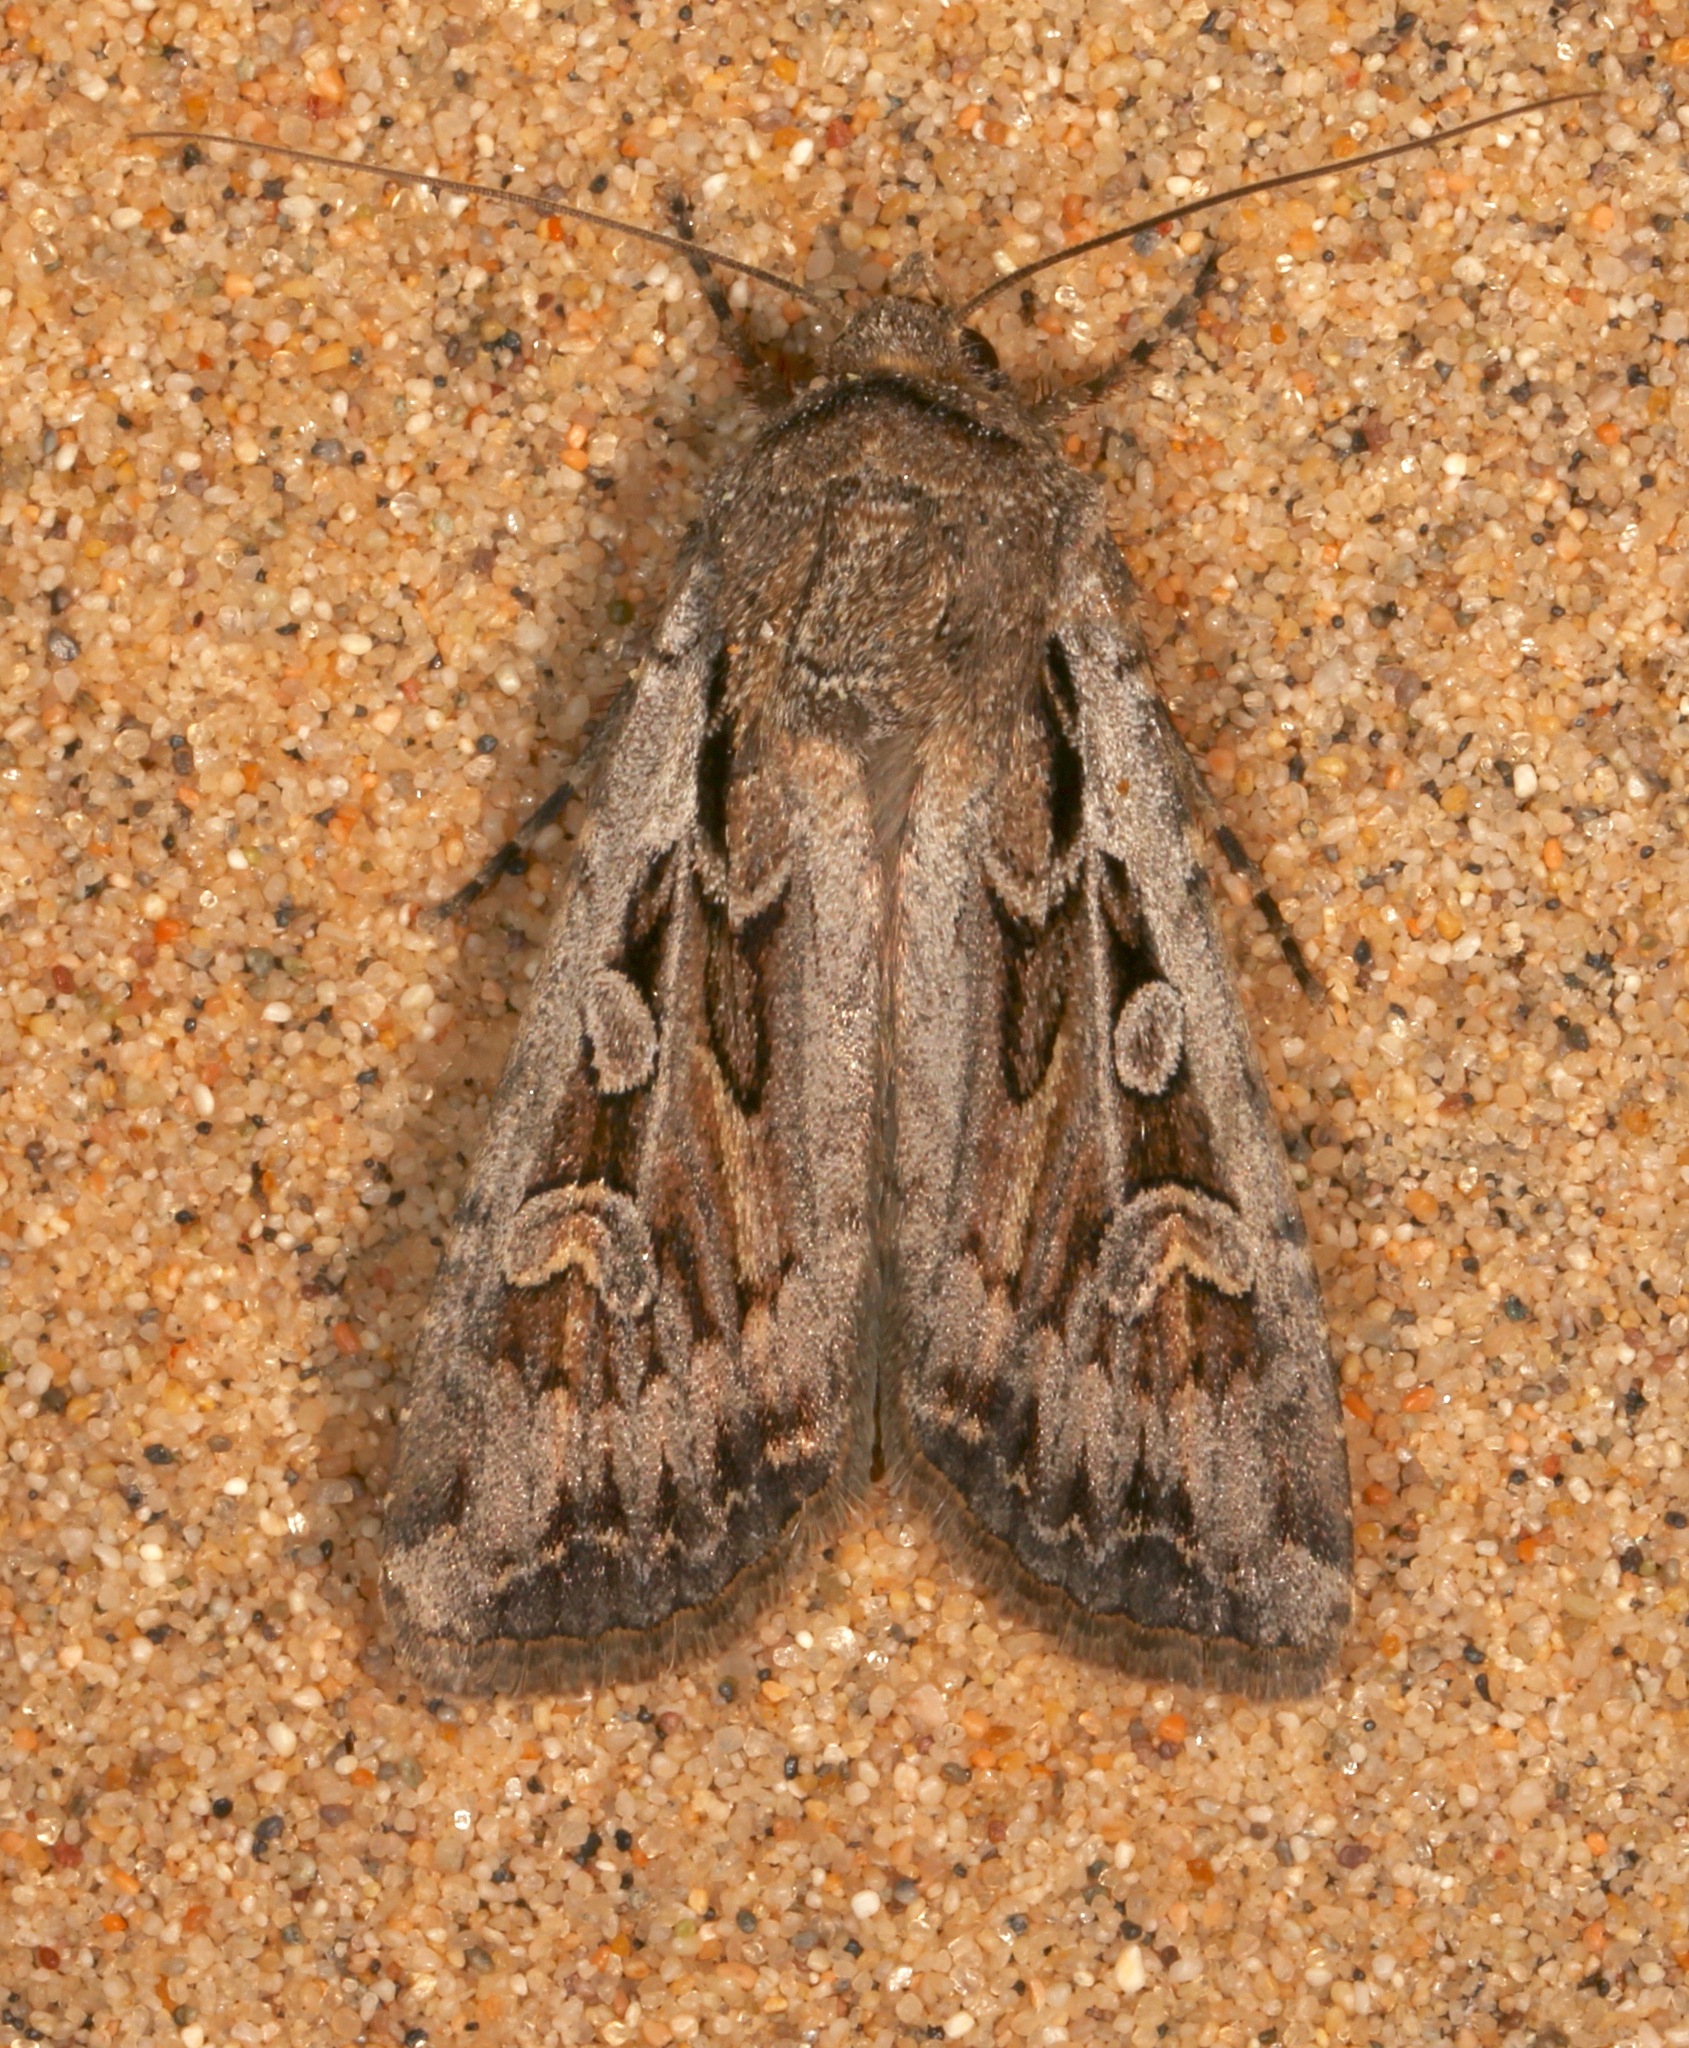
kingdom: Animalia
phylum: Arthropoda
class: Insecta
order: Lepidoptera
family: Noctuidae
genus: Euxoa
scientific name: Euxoa auxiliaris
